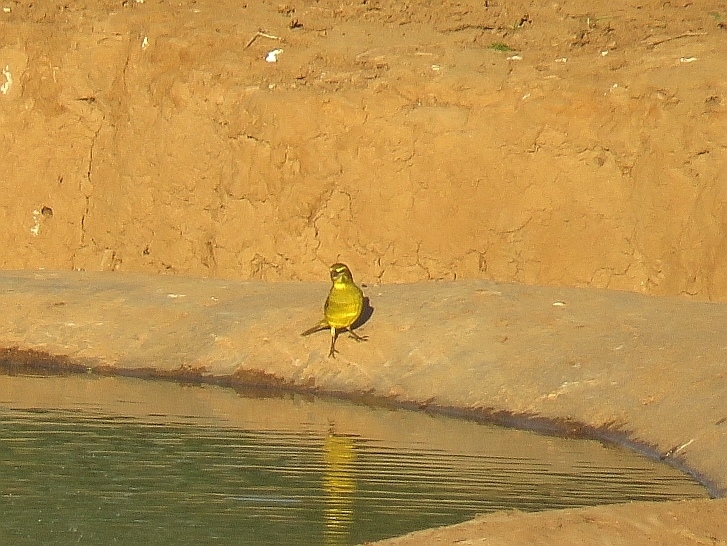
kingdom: Animalia
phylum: Chordata
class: Aves
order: Passeriformes
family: Fringillidae
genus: Crithagra
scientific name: Crithagra sulphurata
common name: Brimstone canary
